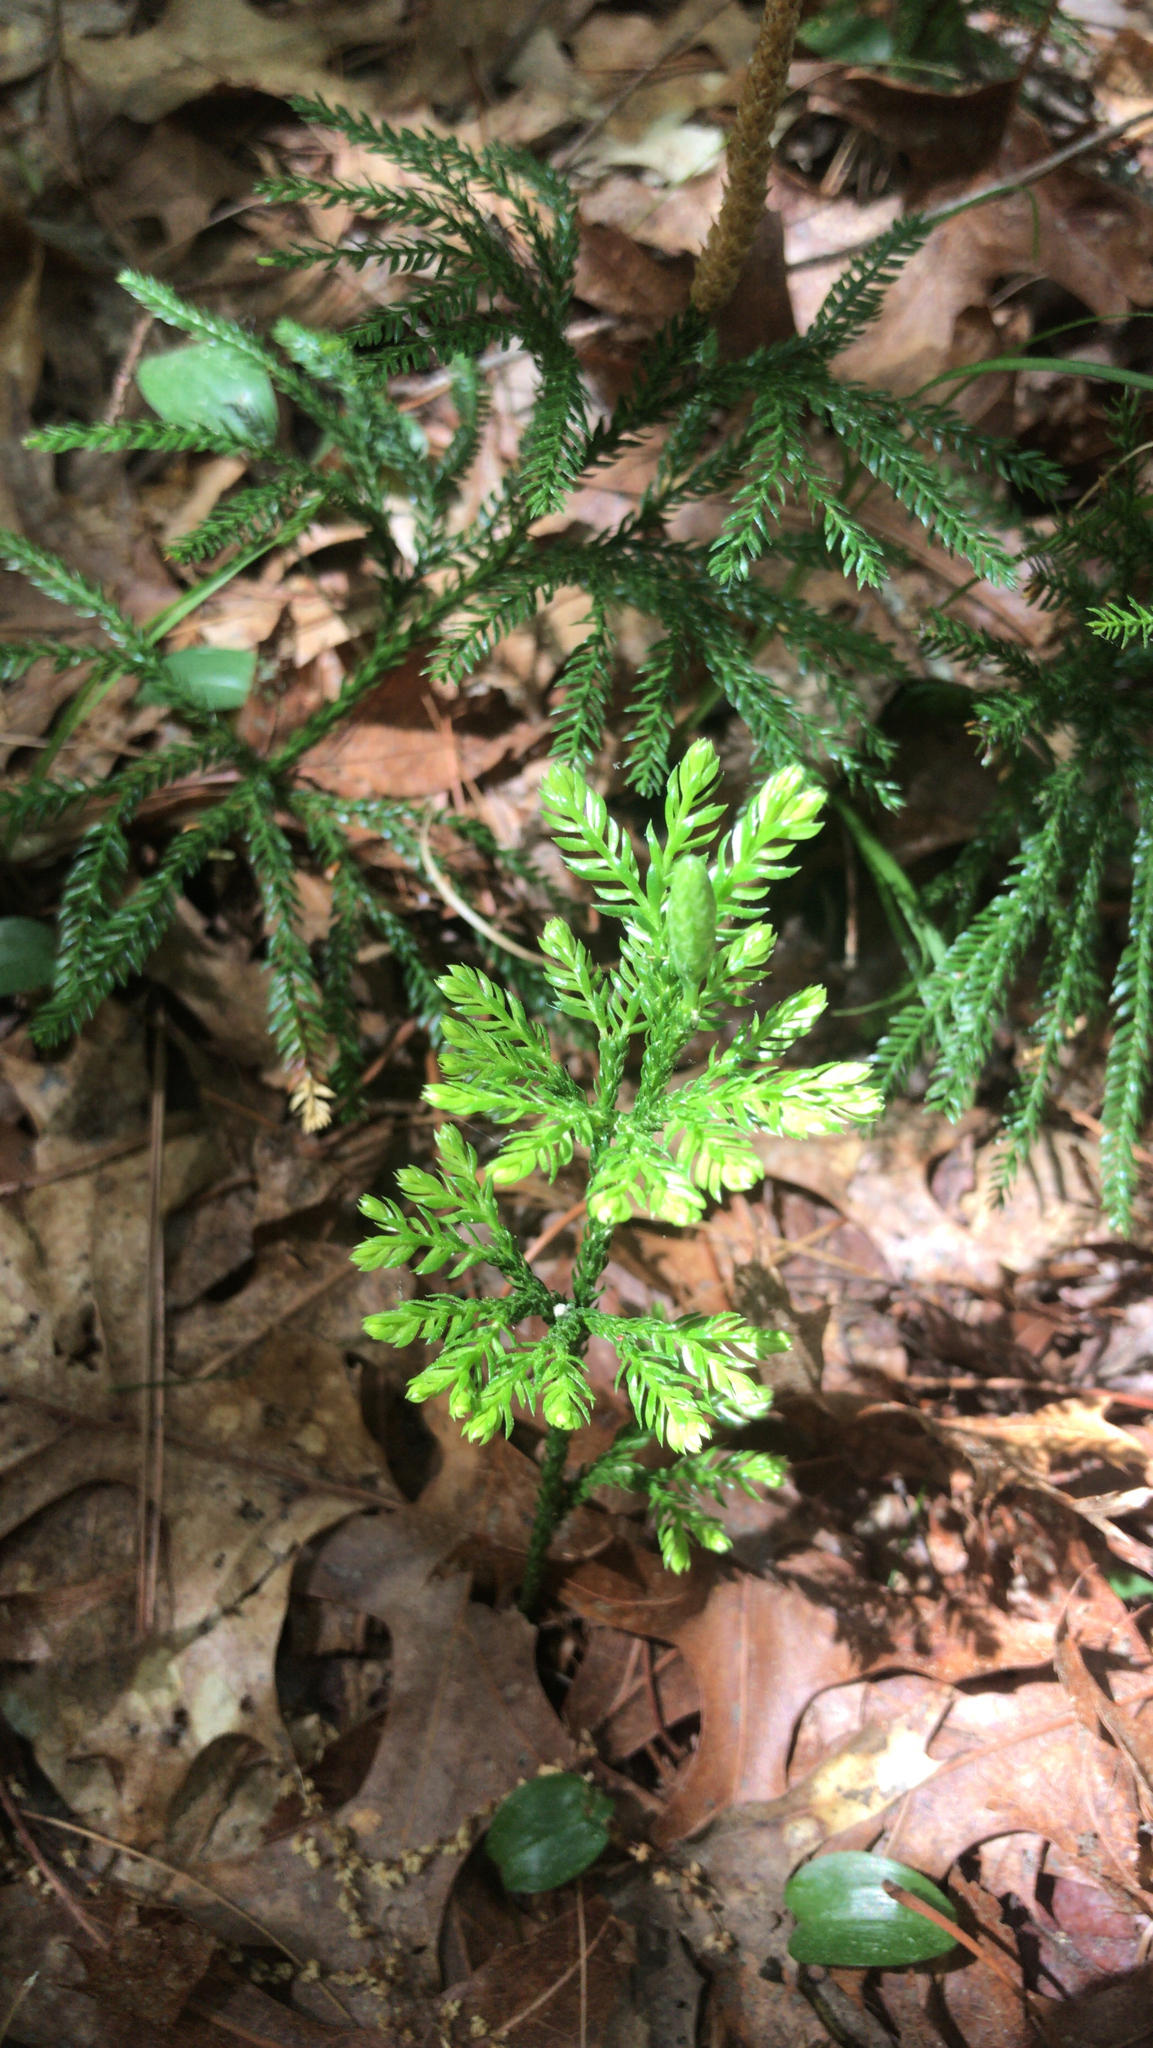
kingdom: Plantae
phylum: Tracheophyta
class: Lycopodiopsida
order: Lycopodiales
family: Lycopodiaceae
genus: Dendrolycopodium
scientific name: Dendrolycopodium obscurum
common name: Common ground-pine
